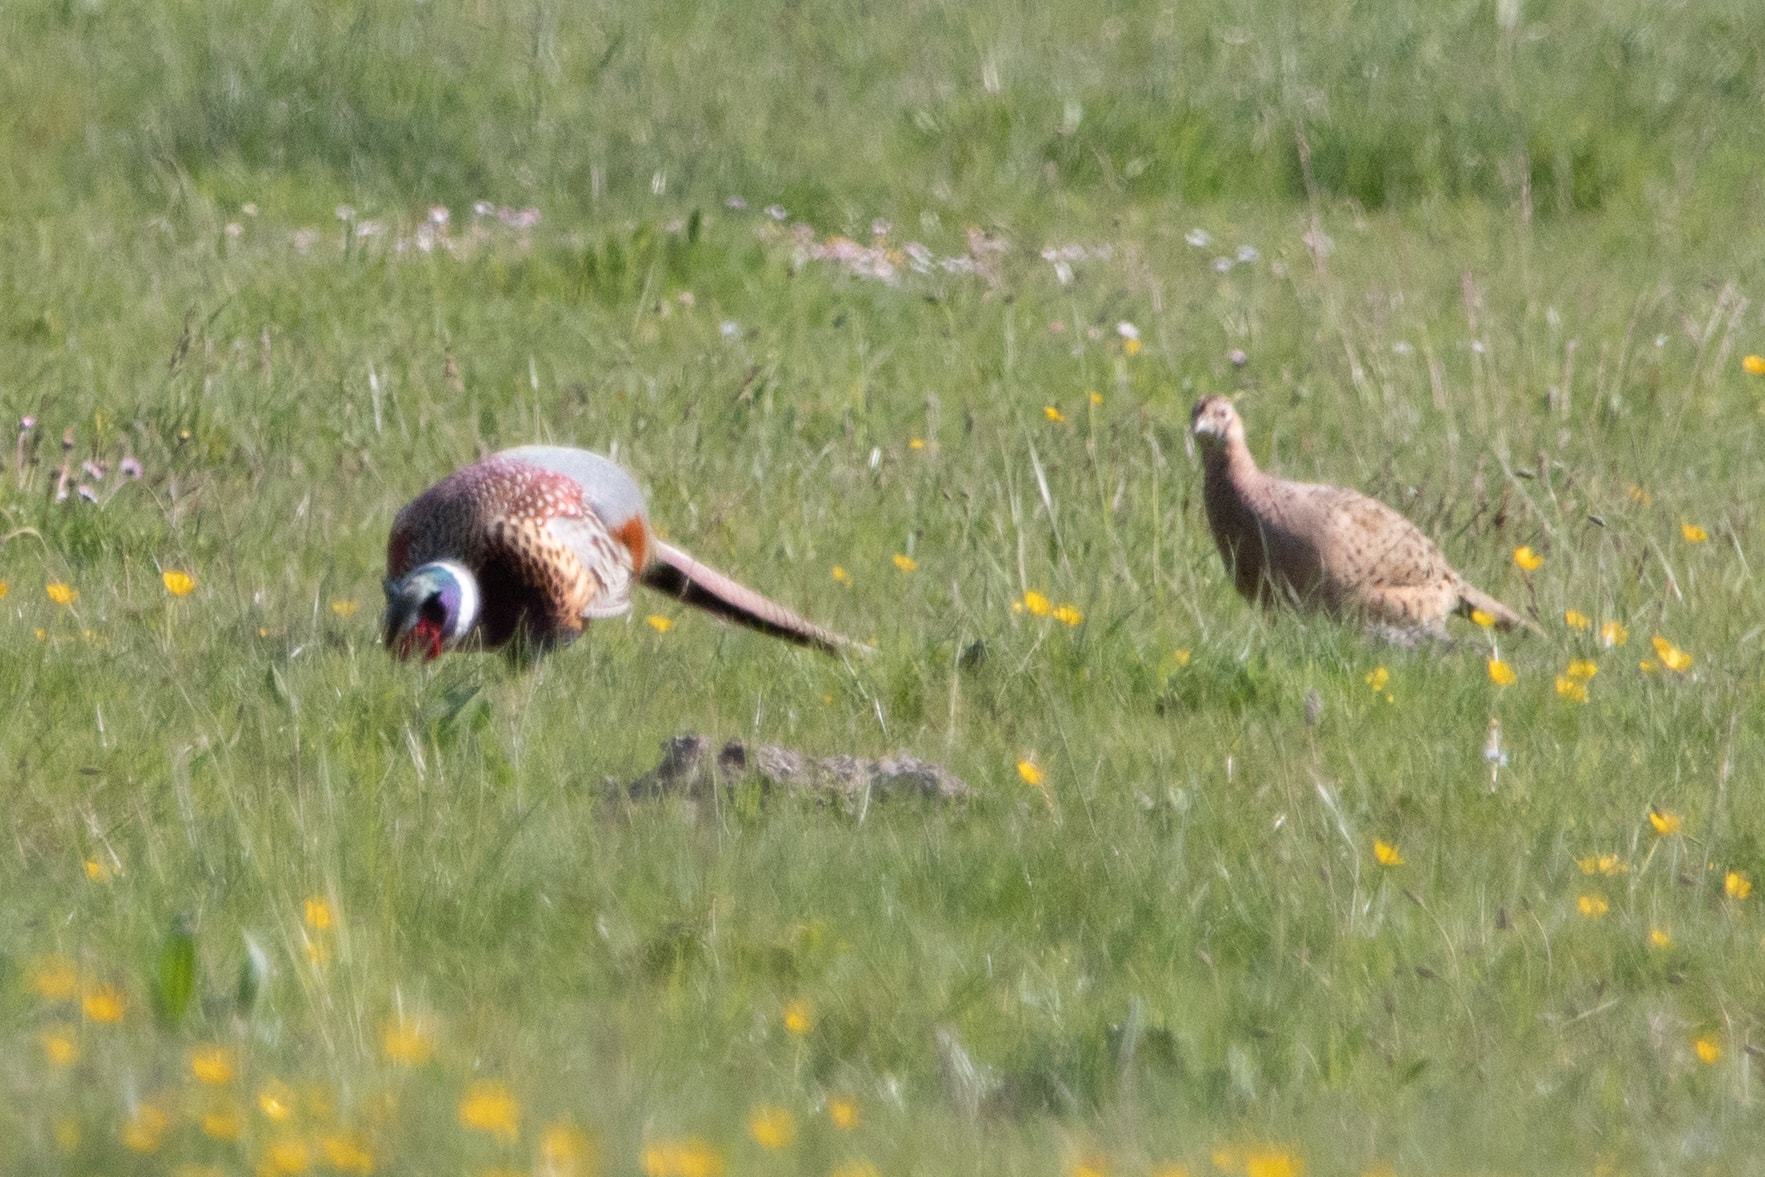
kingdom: Animalia
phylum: Chordata
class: Aves
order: Galliformes
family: Phasianidae
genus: Phasianus
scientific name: Phasianus colchicus
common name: Common pheasant
